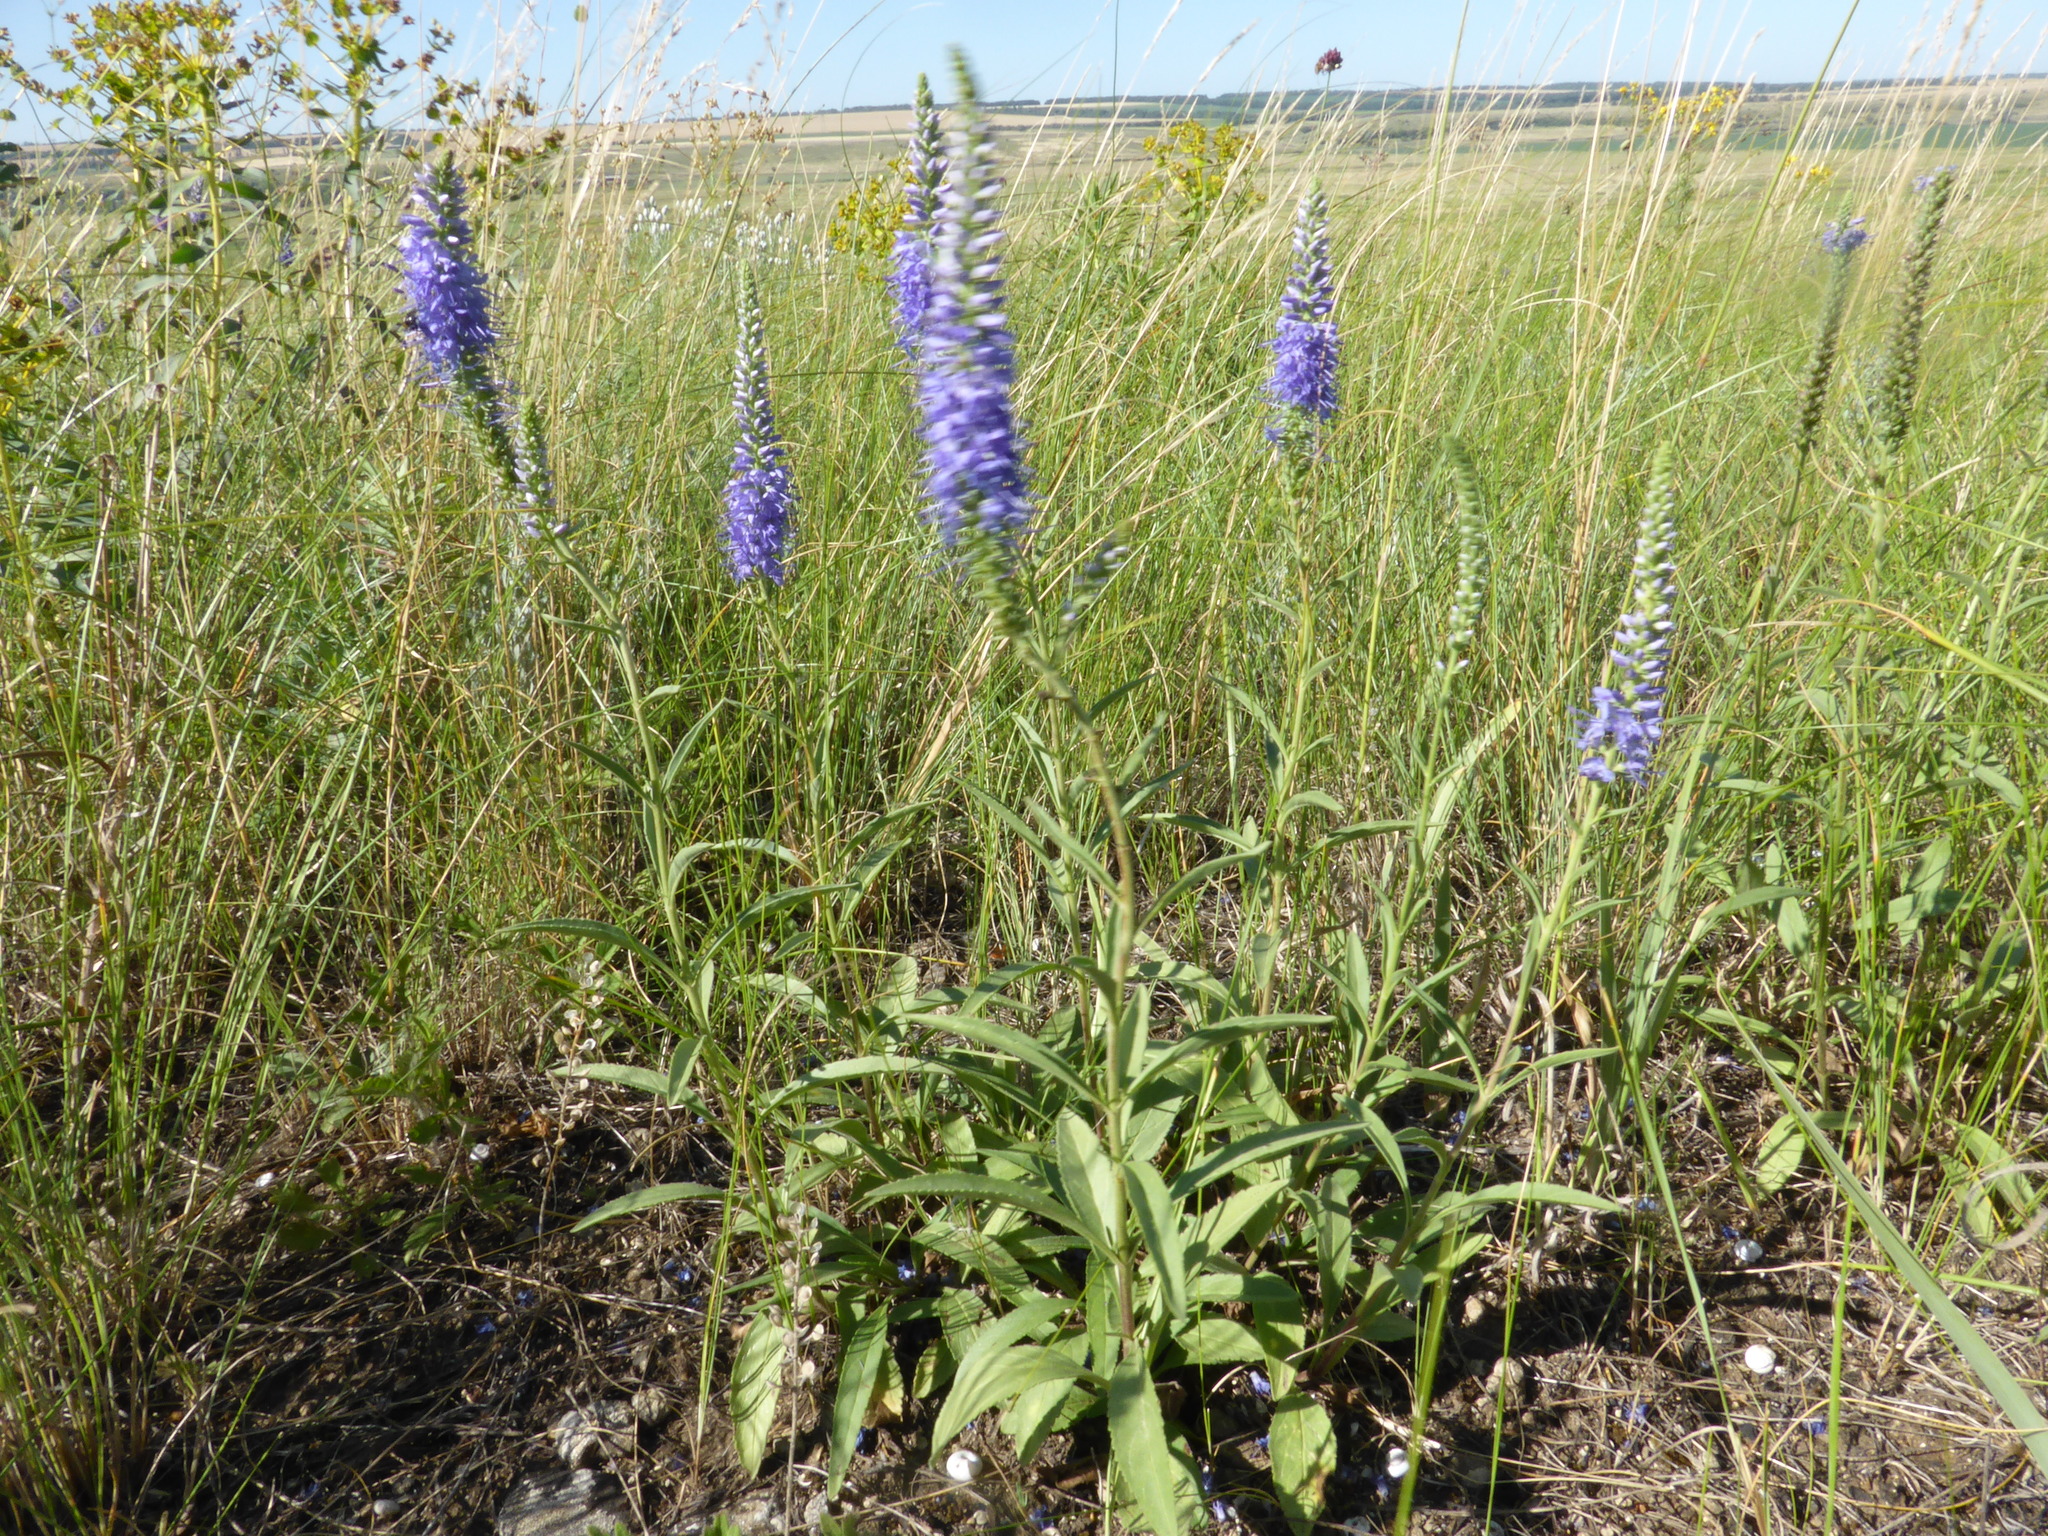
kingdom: Plantae
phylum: Tracheophyta
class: Magnoliopsida
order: Lamiales
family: Plantaginaceae
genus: Veronica
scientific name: Veronica spicata
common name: Spiked speedwell
